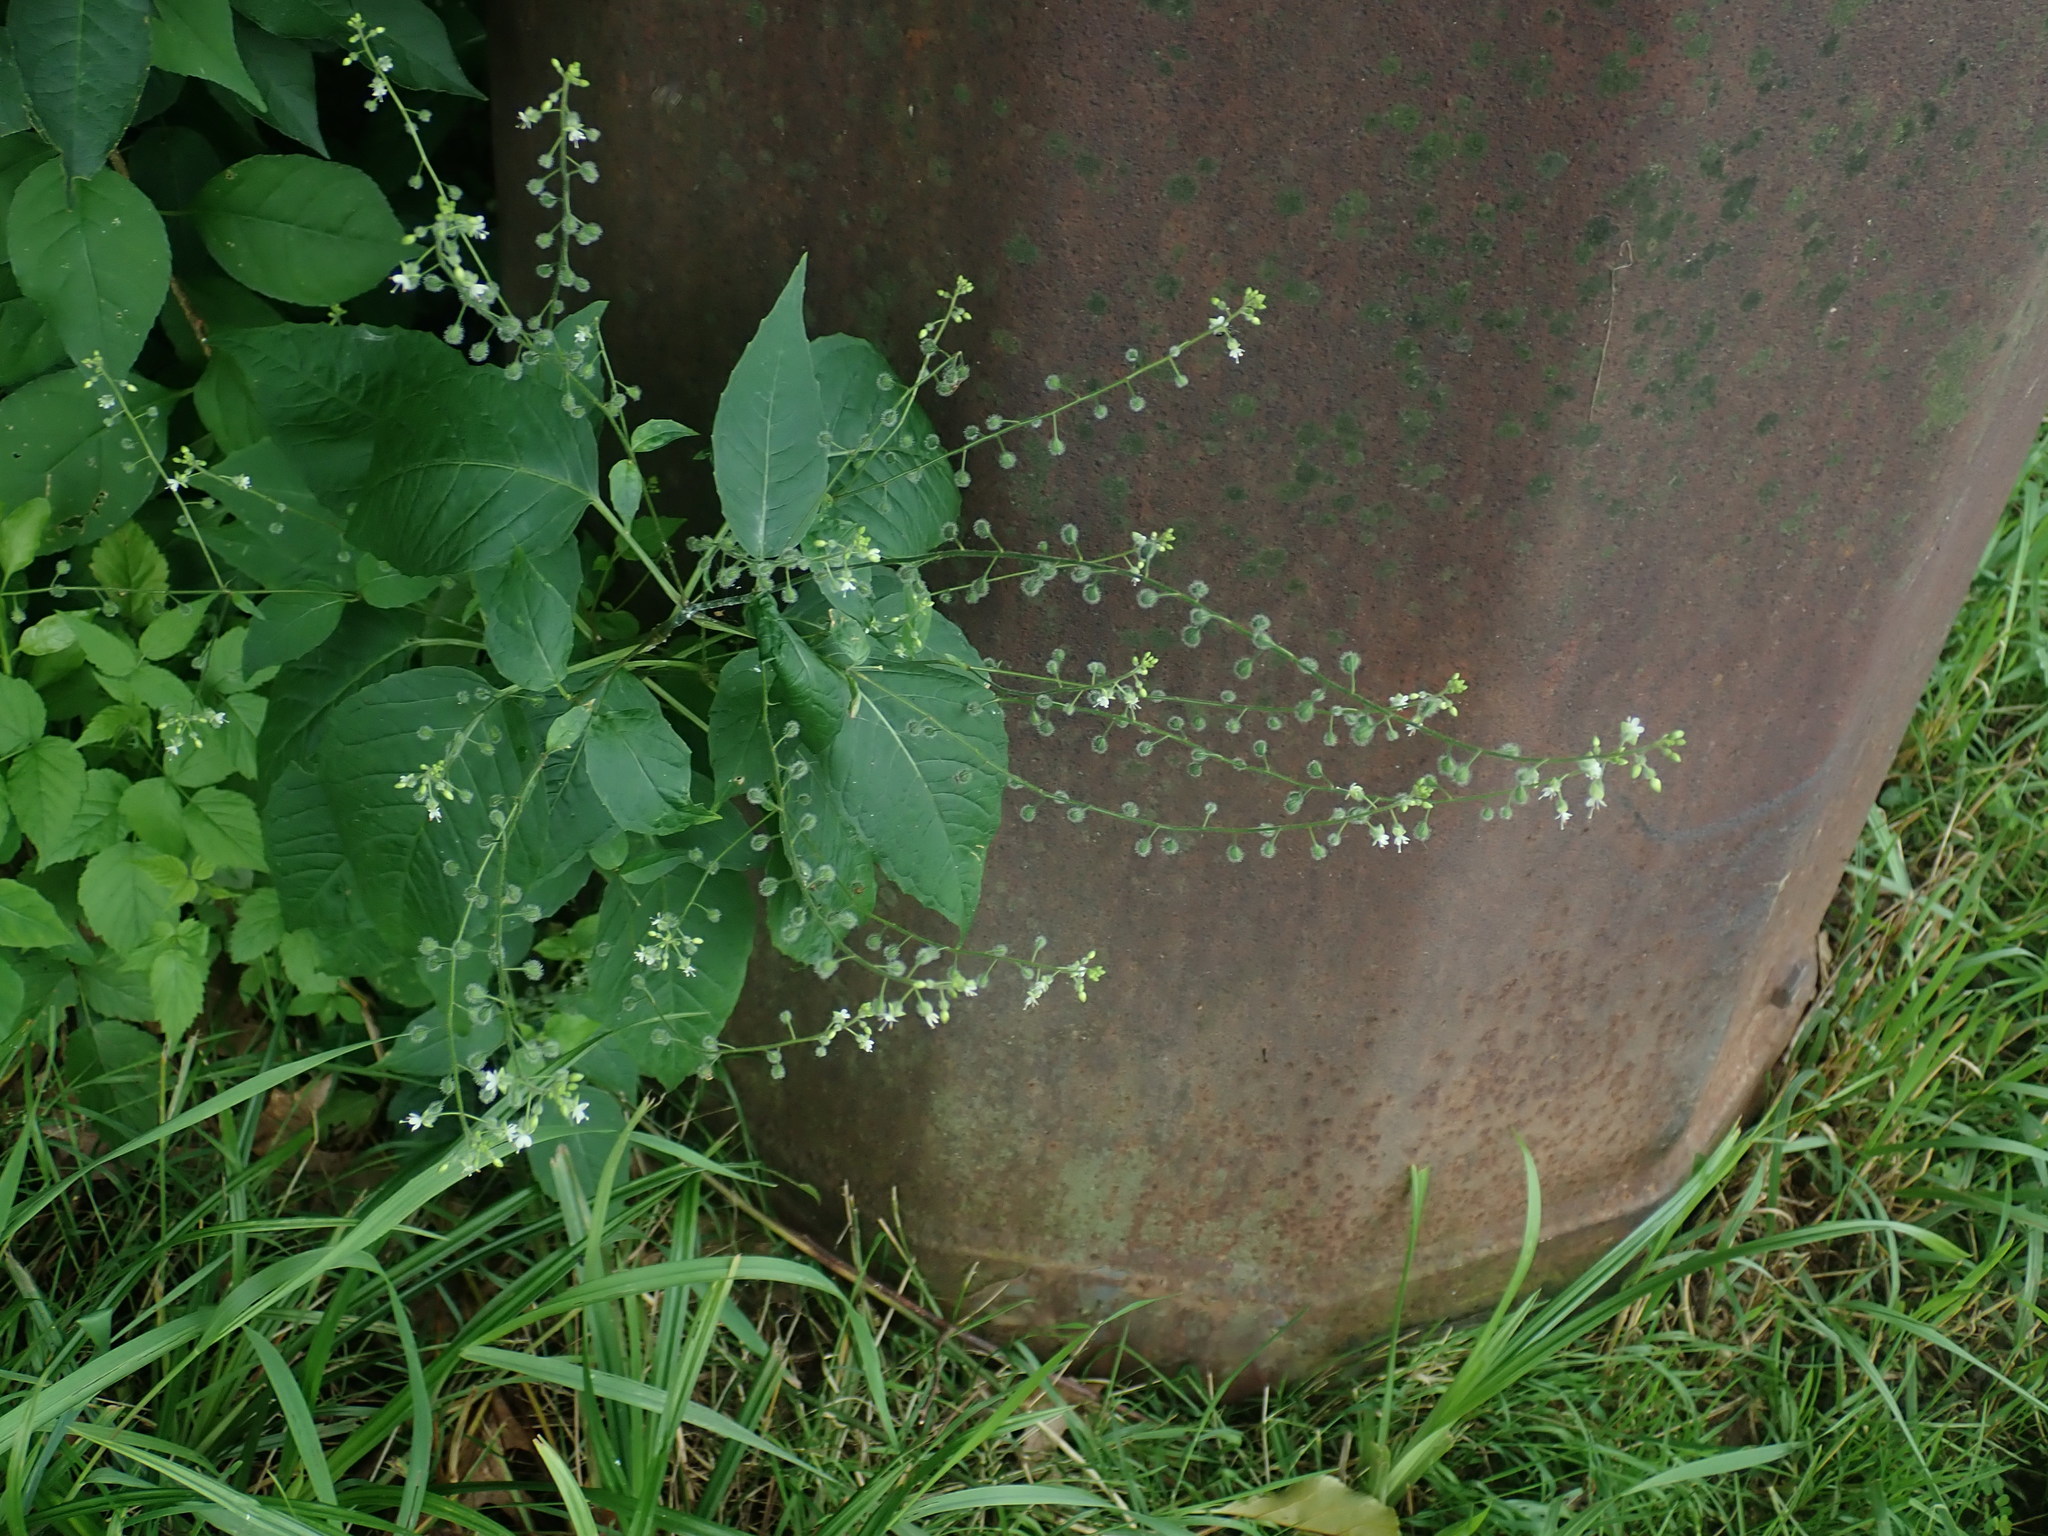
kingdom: Plantae
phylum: Tracheophyta
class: Magnoliopsida
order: Myrtales
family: Onagraceae
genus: Circaea
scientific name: Circaea canadensis
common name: Broad-leaved enchanter's nightshade
